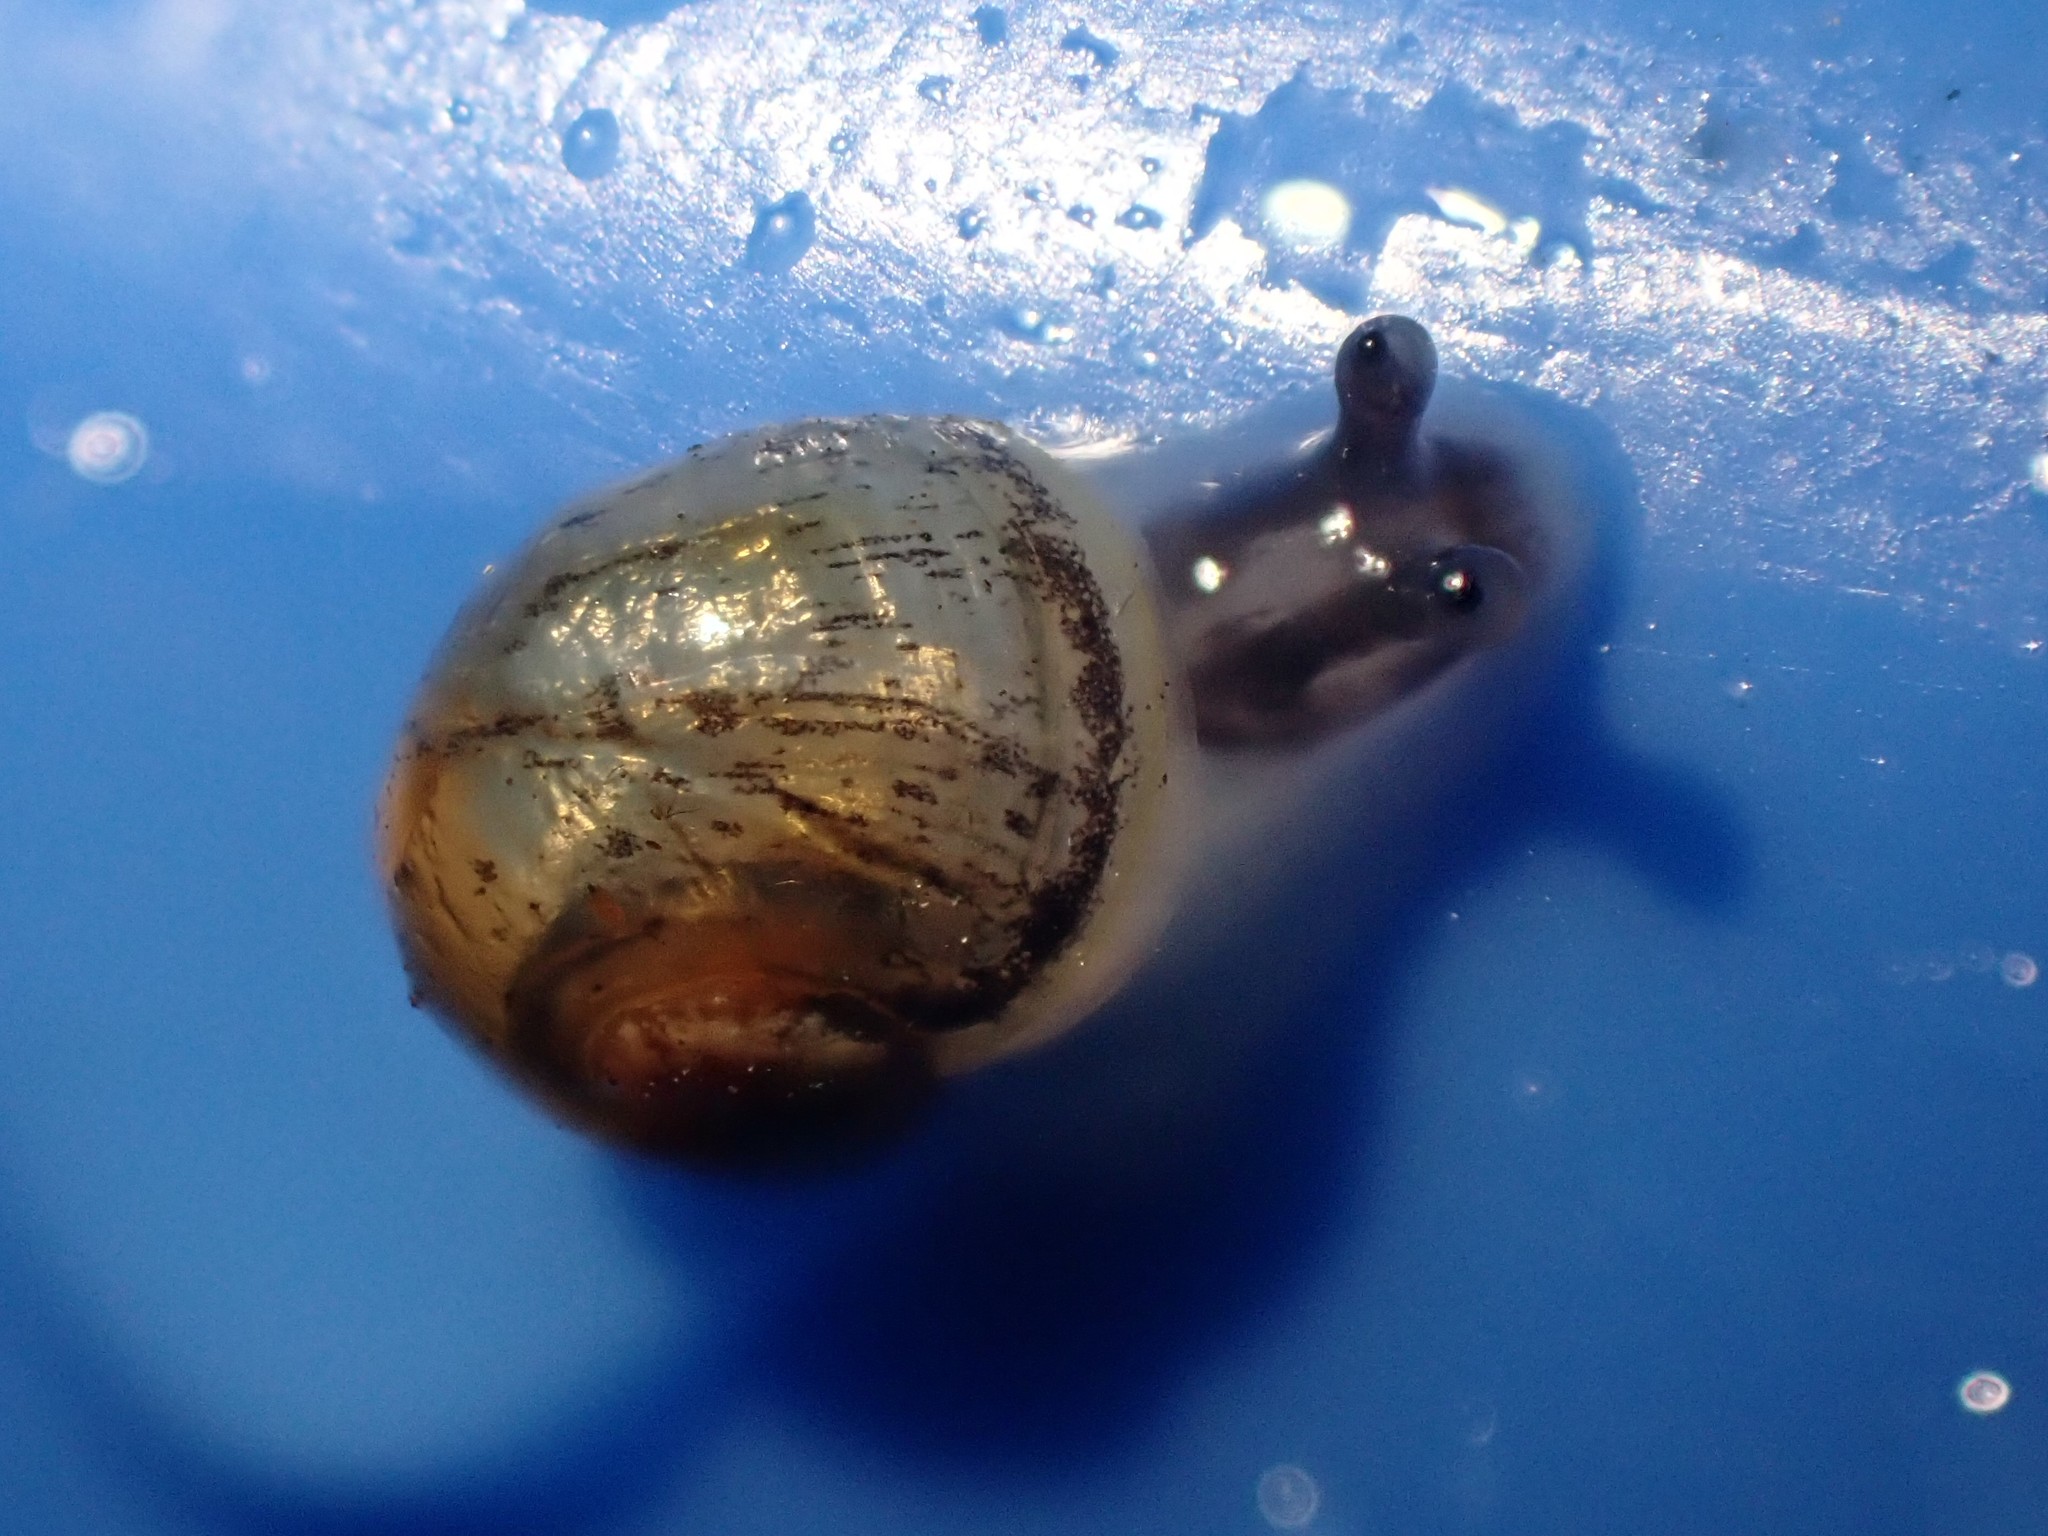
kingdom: Animalia
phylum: Mollusca
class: Gastropoda
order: Stylommatophora
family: Helicidae
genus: Cornu
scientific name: Cornu aspersum
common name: Brown garden snail
